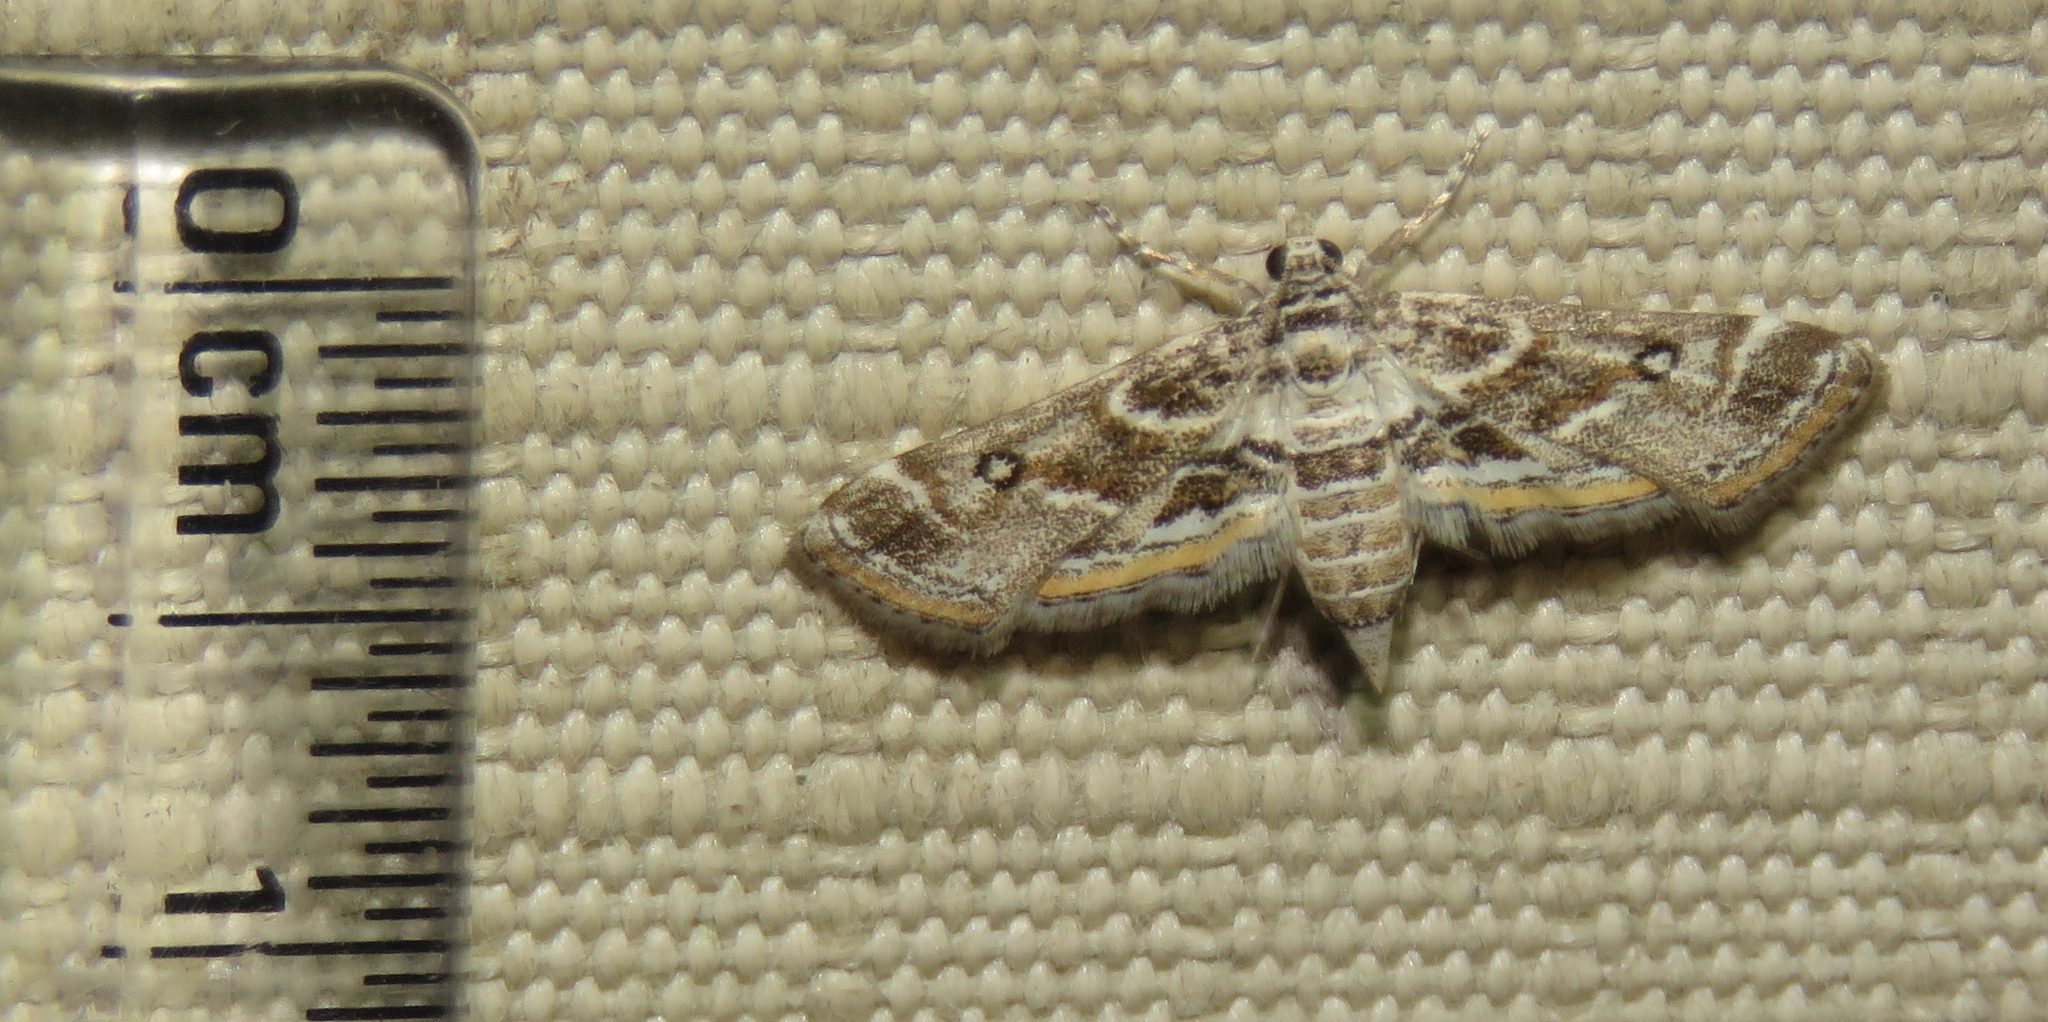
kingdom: Animalia
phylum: Arthropoda
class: Insecta
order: Lepidoptera
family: Crambidae
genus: Parapoynx
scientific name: Parapoynx affinialis
